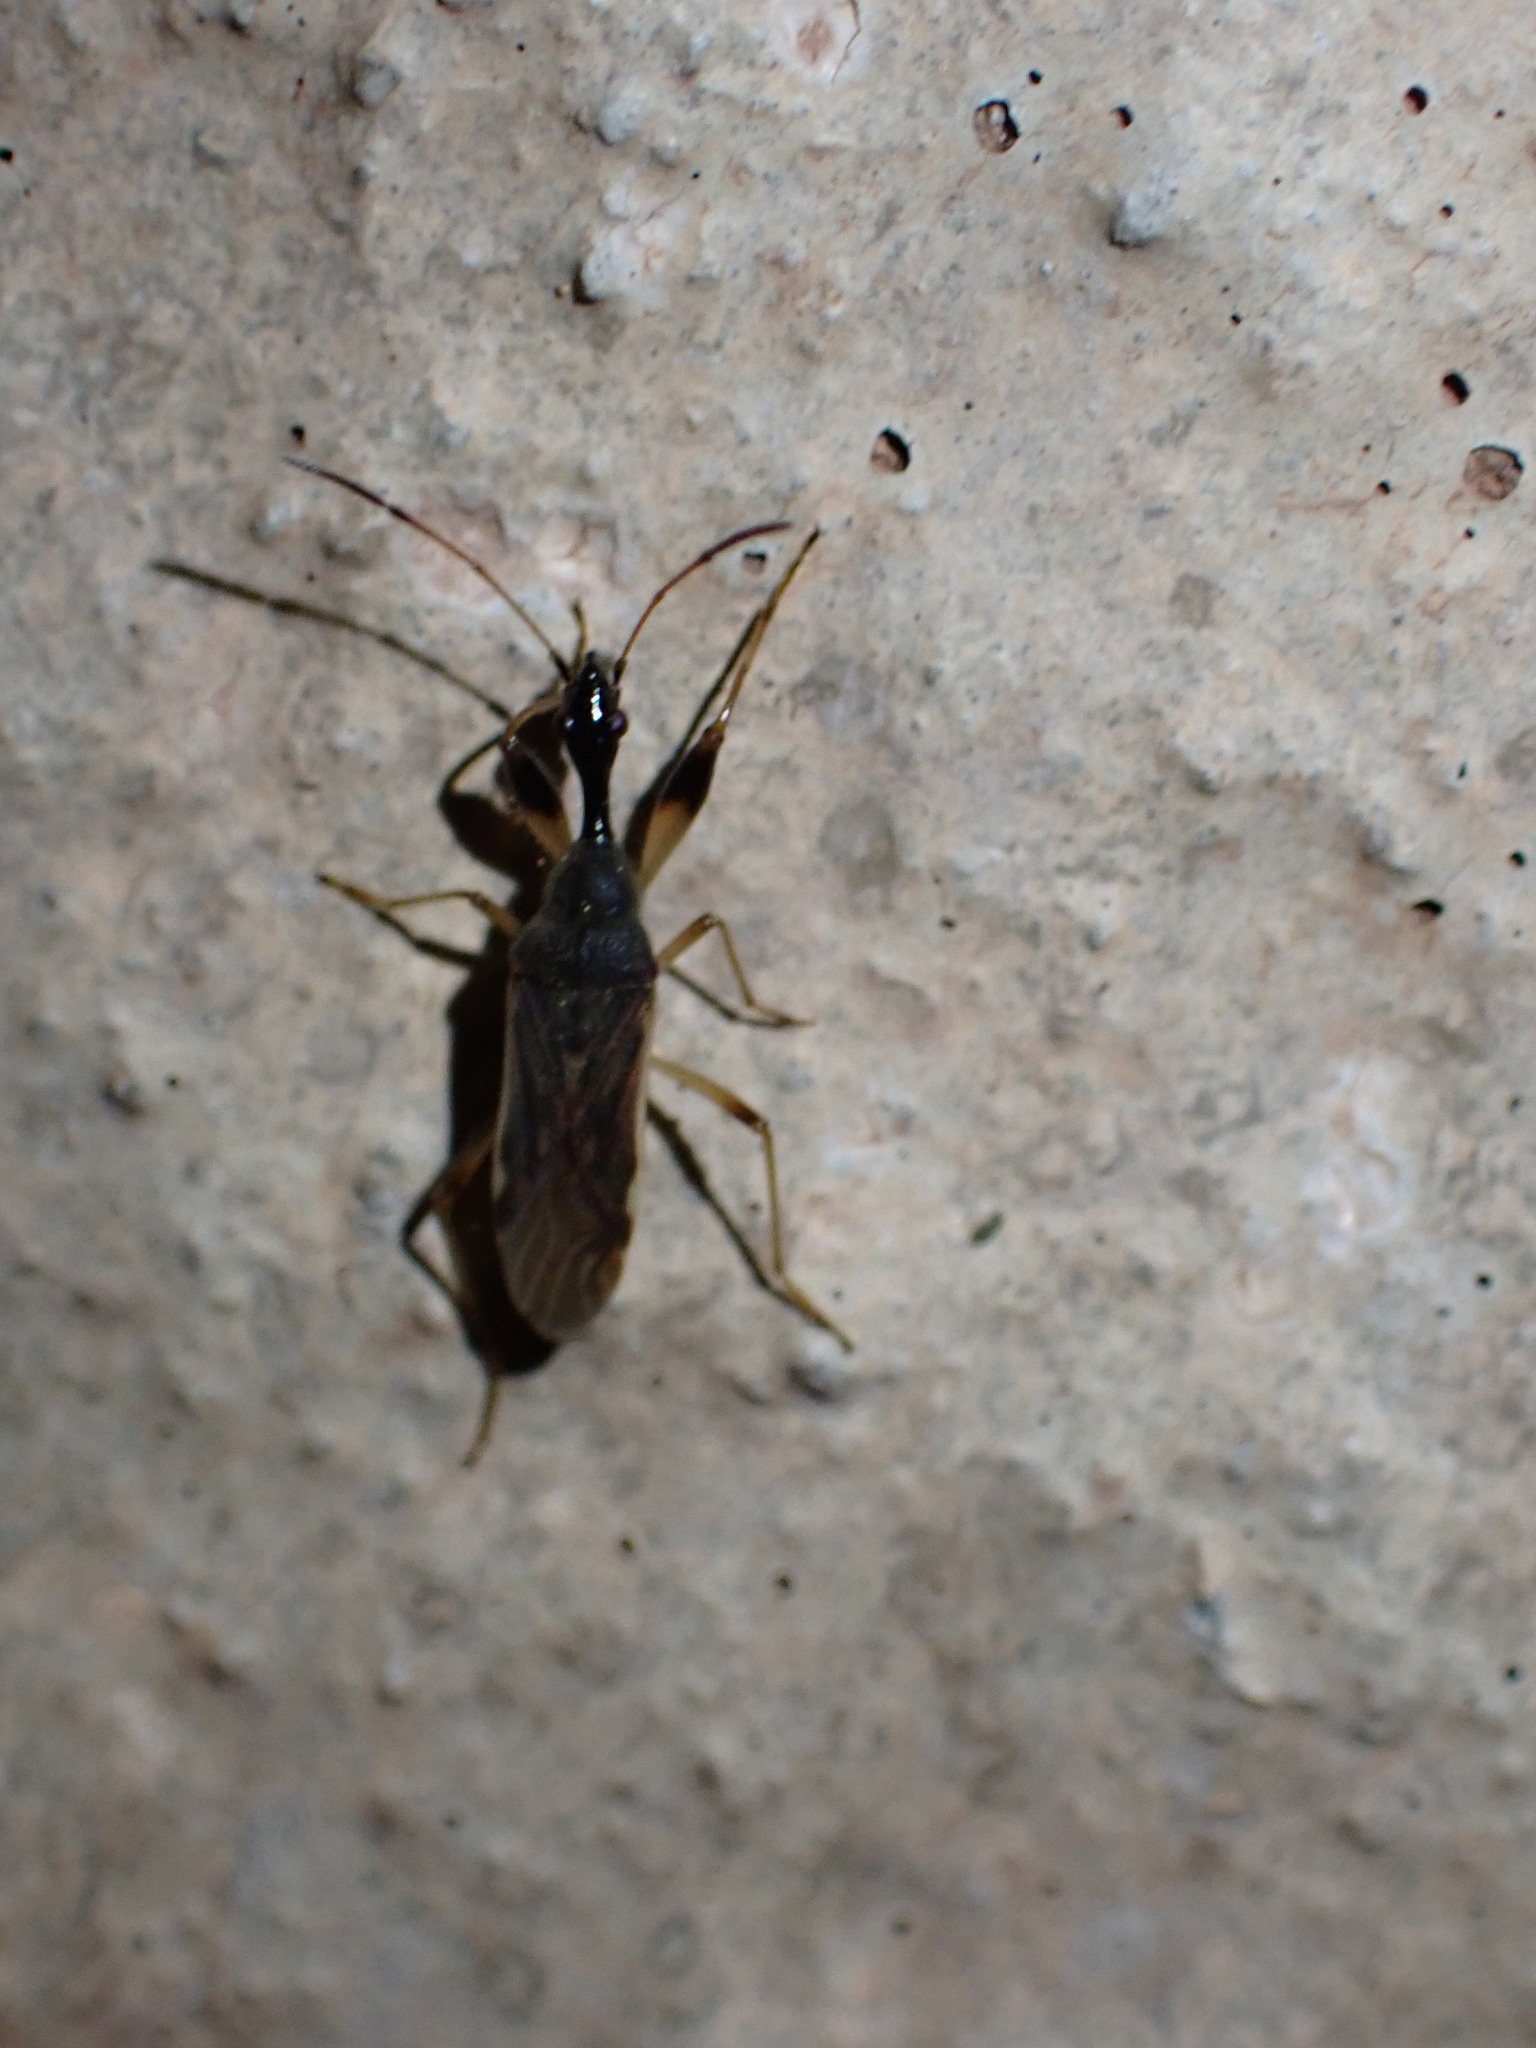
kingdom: Animalia
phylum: Arthropoda
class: Insecta
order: Hemiptera
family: Rhyparochromidae
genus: Myodocha
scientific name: Myodocha serripes
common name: Long-necked seed bug
